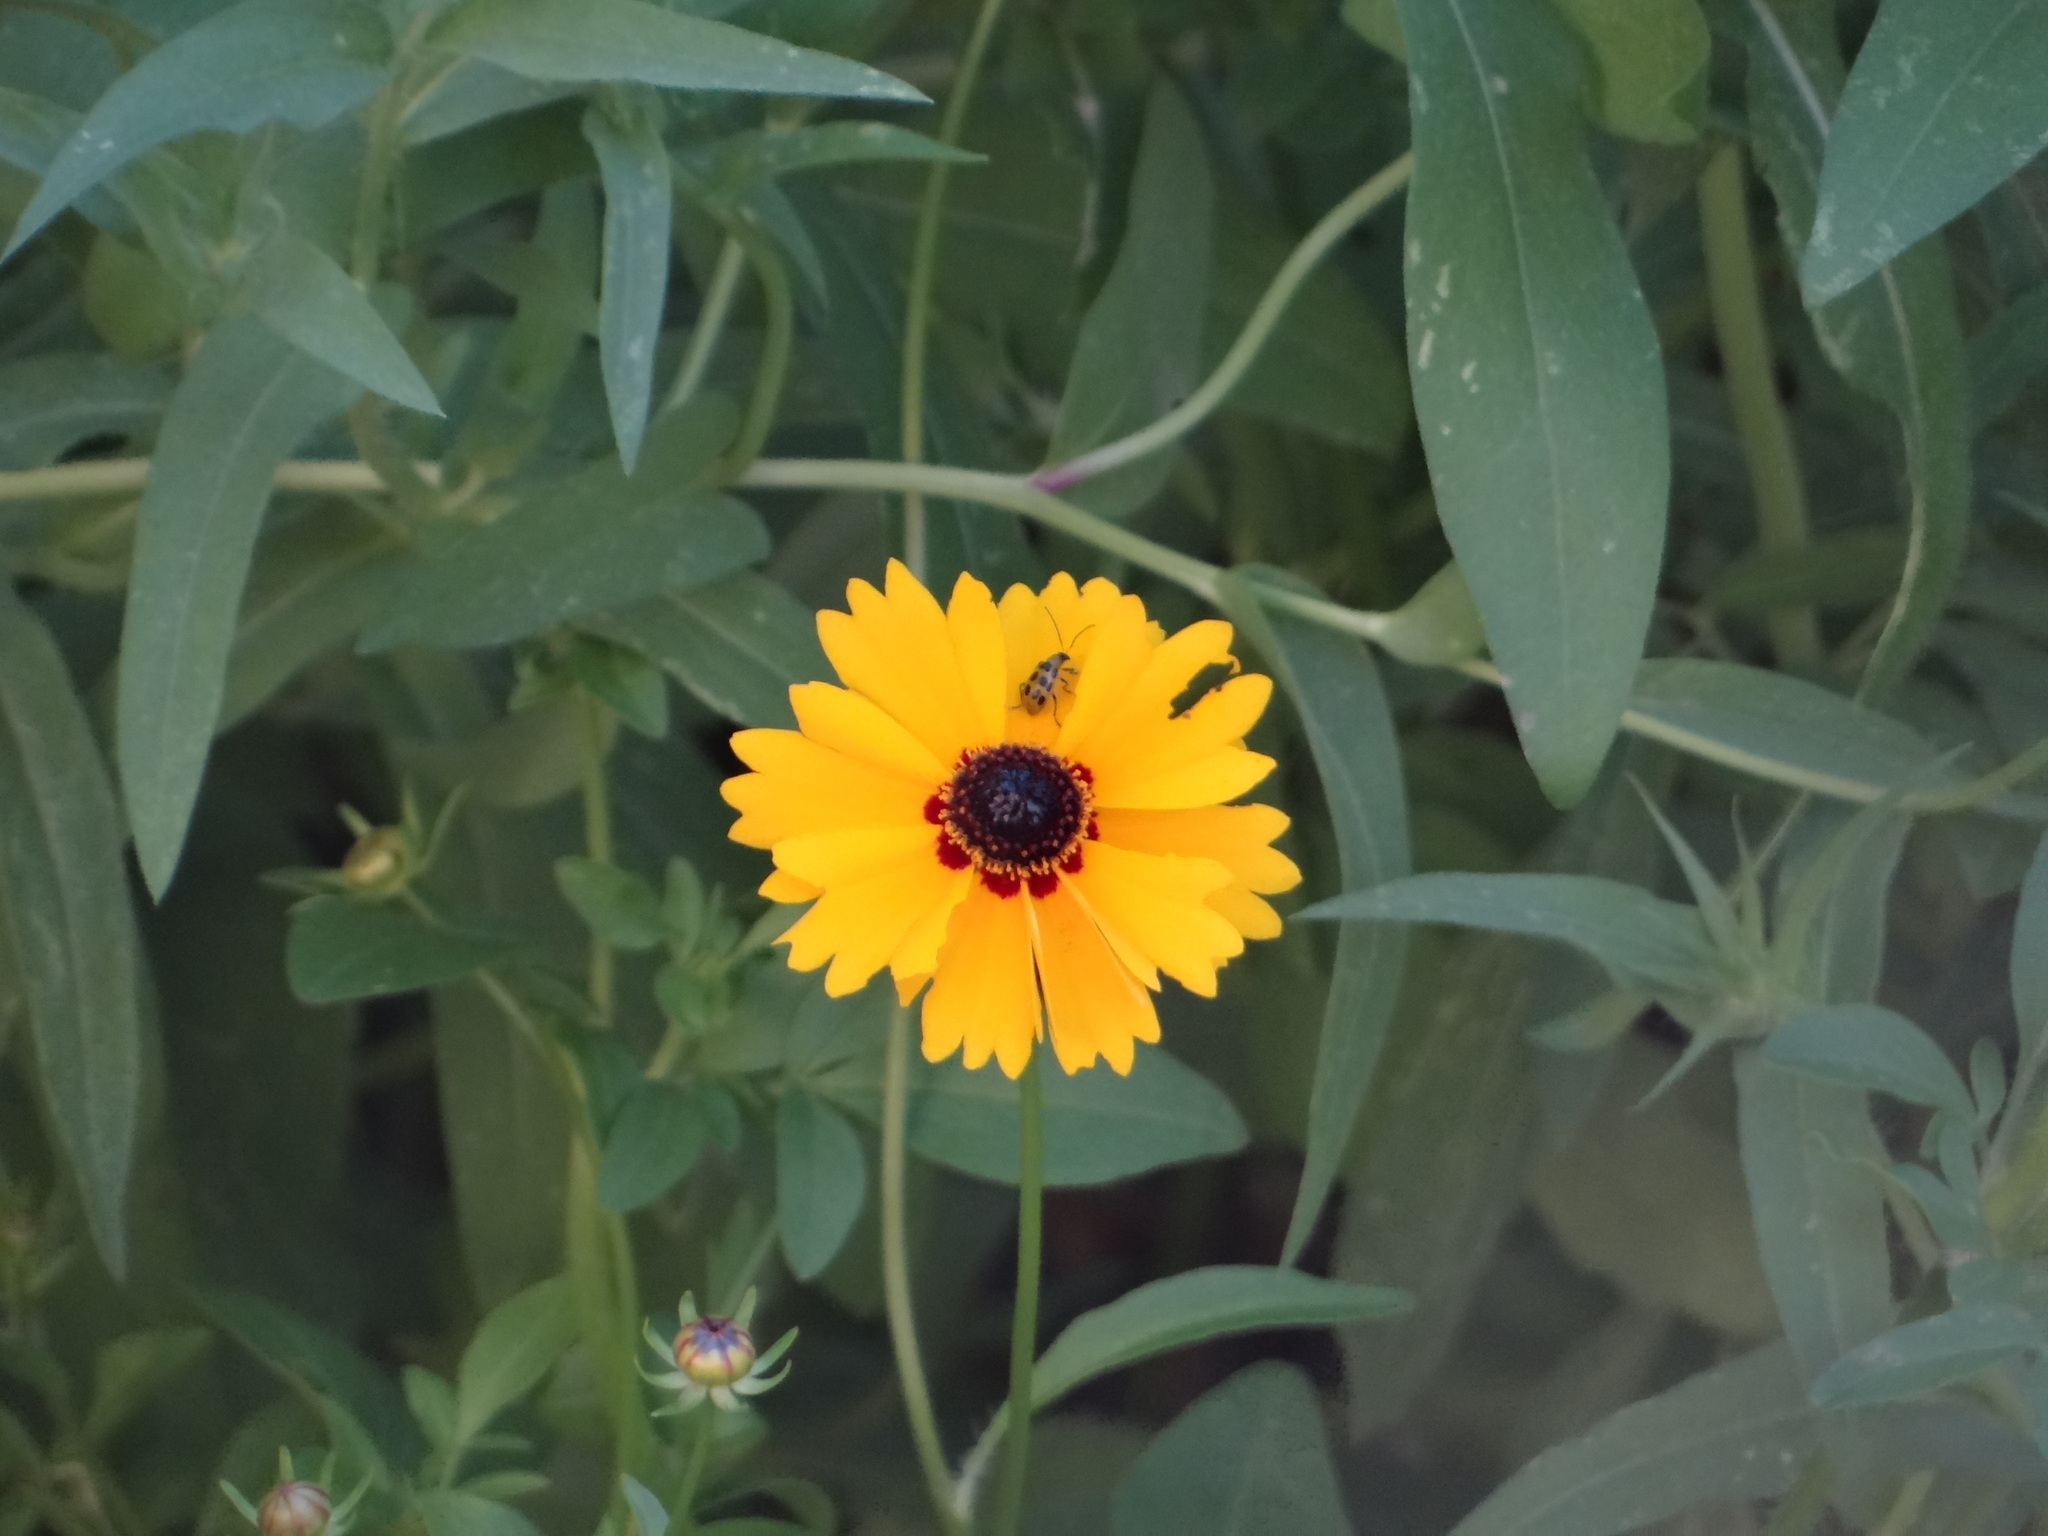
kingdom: Animalia
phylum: Arthropoda
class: Insecta
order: Coleoptera
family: Chrysomelidae
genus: Diabrotica
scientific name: Diabrotica undecimpunctata
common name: Spotted cucumber beetle
